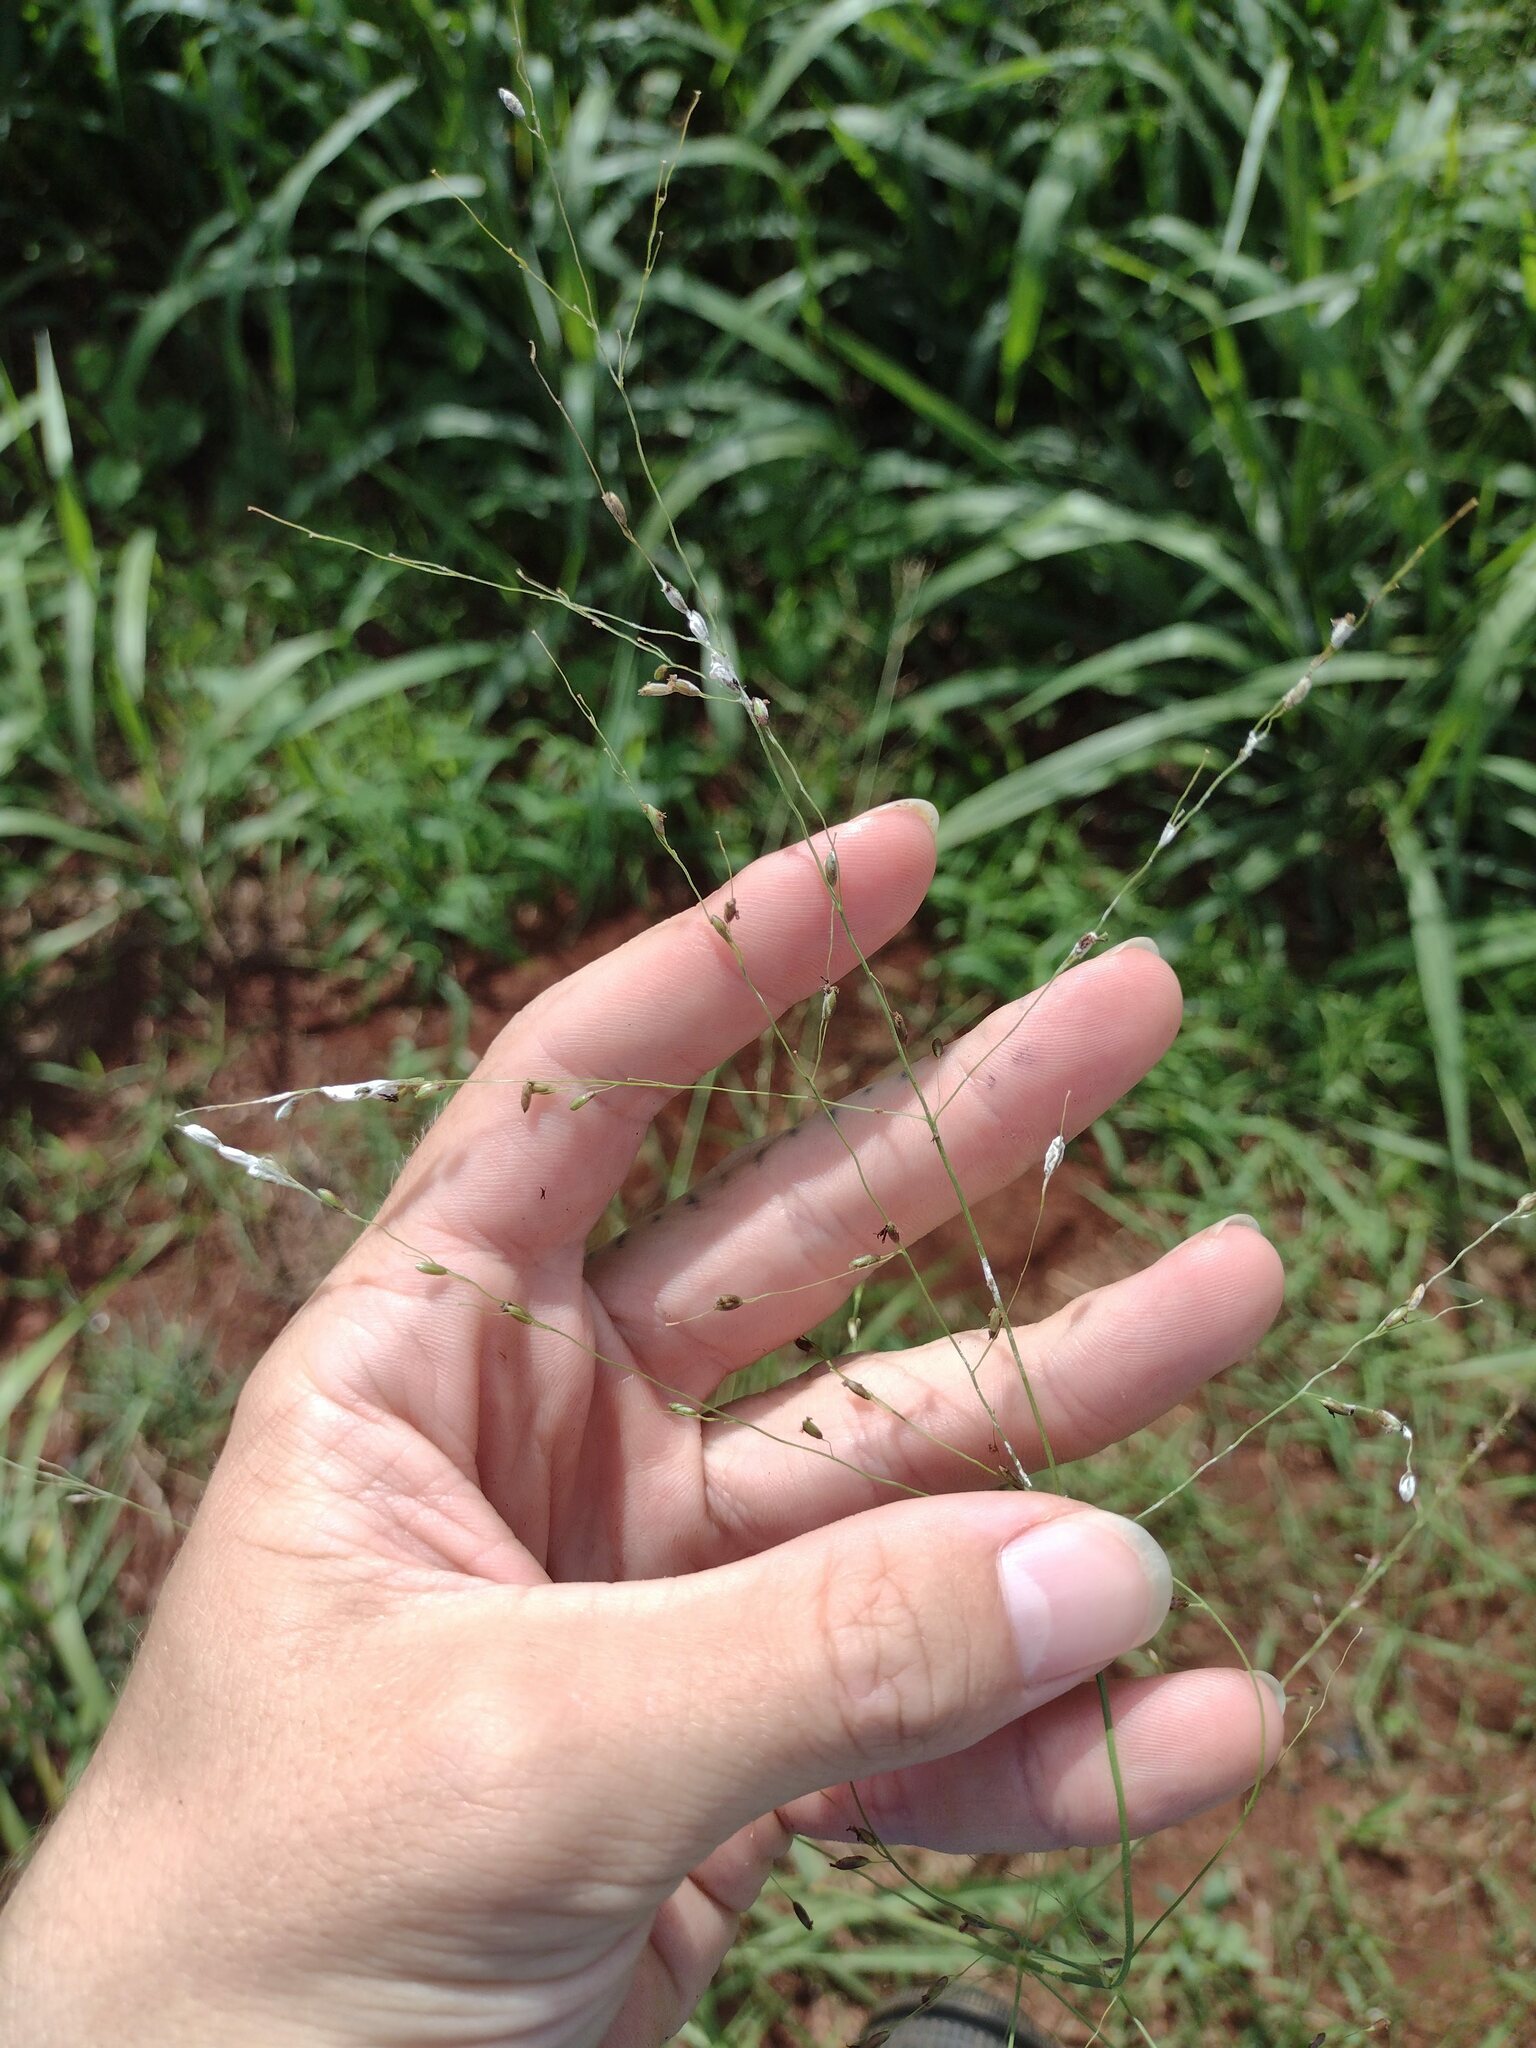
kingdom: Plantae
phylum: Tracheophyta
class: Liliopsida
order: Poales
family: Poaceae
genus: Megathyrsus
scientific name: Megathyrsus maximus
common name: Guineagrass
